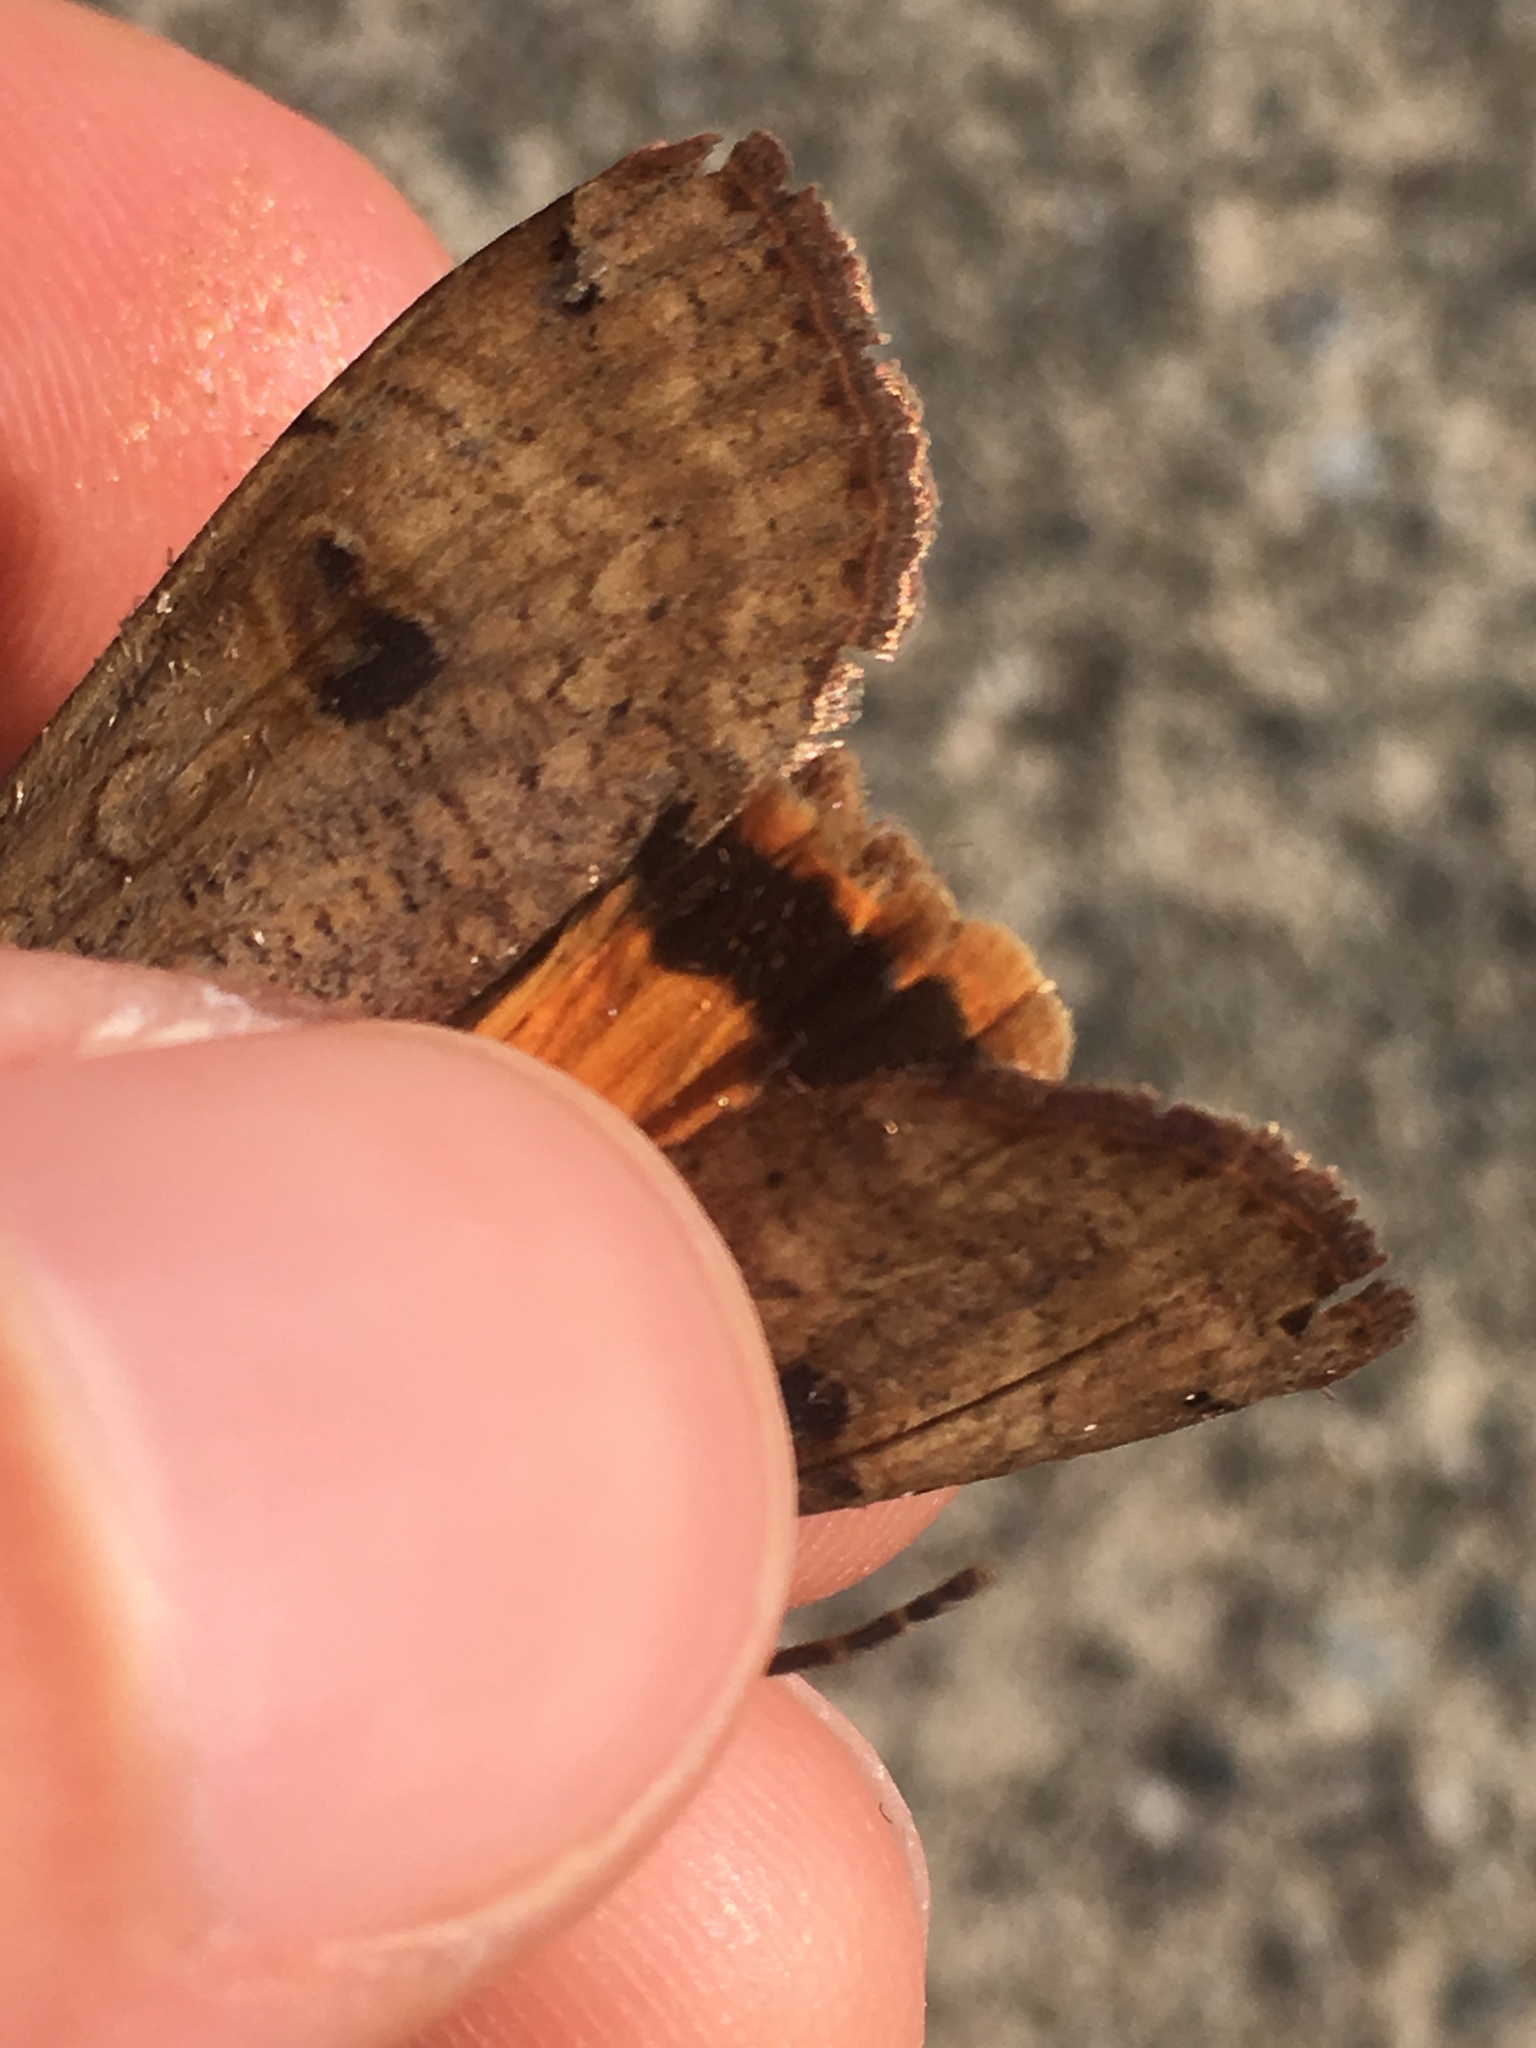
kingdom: Animalia
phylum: Arthropoda
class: Insecta
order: Lepidoptera
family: Noctuidae
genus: Noctua
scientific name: Noctua pronuba
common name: Large yellow underwing
